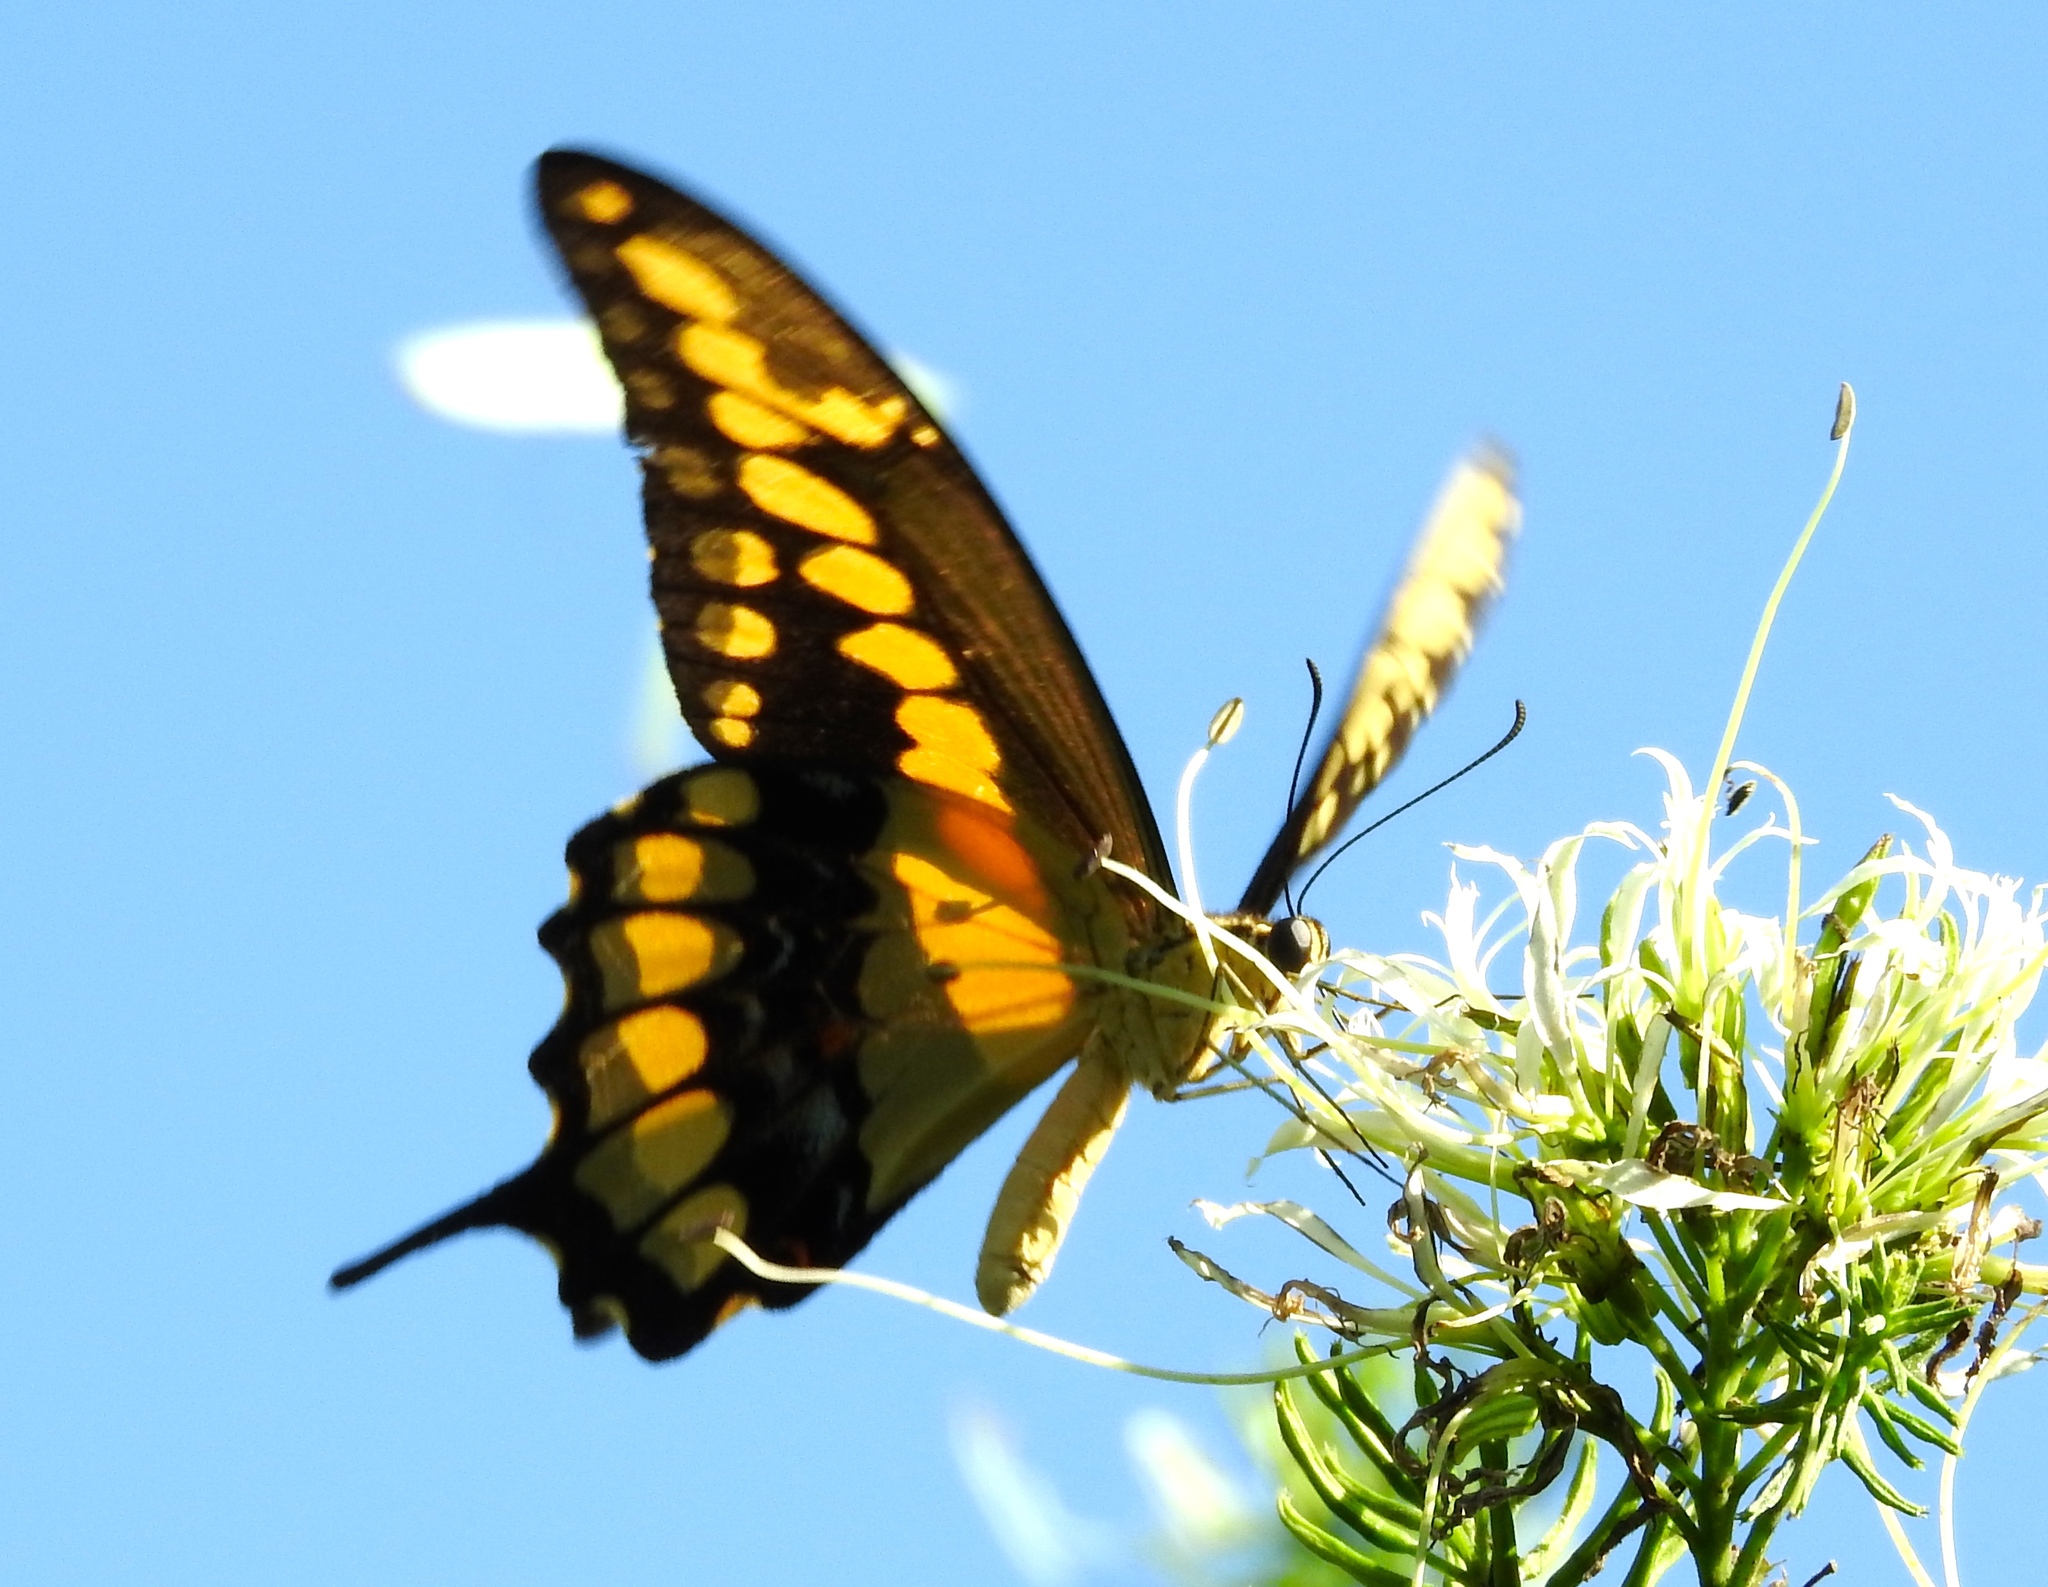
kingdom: Animalia
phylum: Arthropoda
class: Insecta
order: Lepidoptera
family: Papilionidae
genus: Papilio
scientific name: Papilio rumiko
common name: Western giant swallowtail
